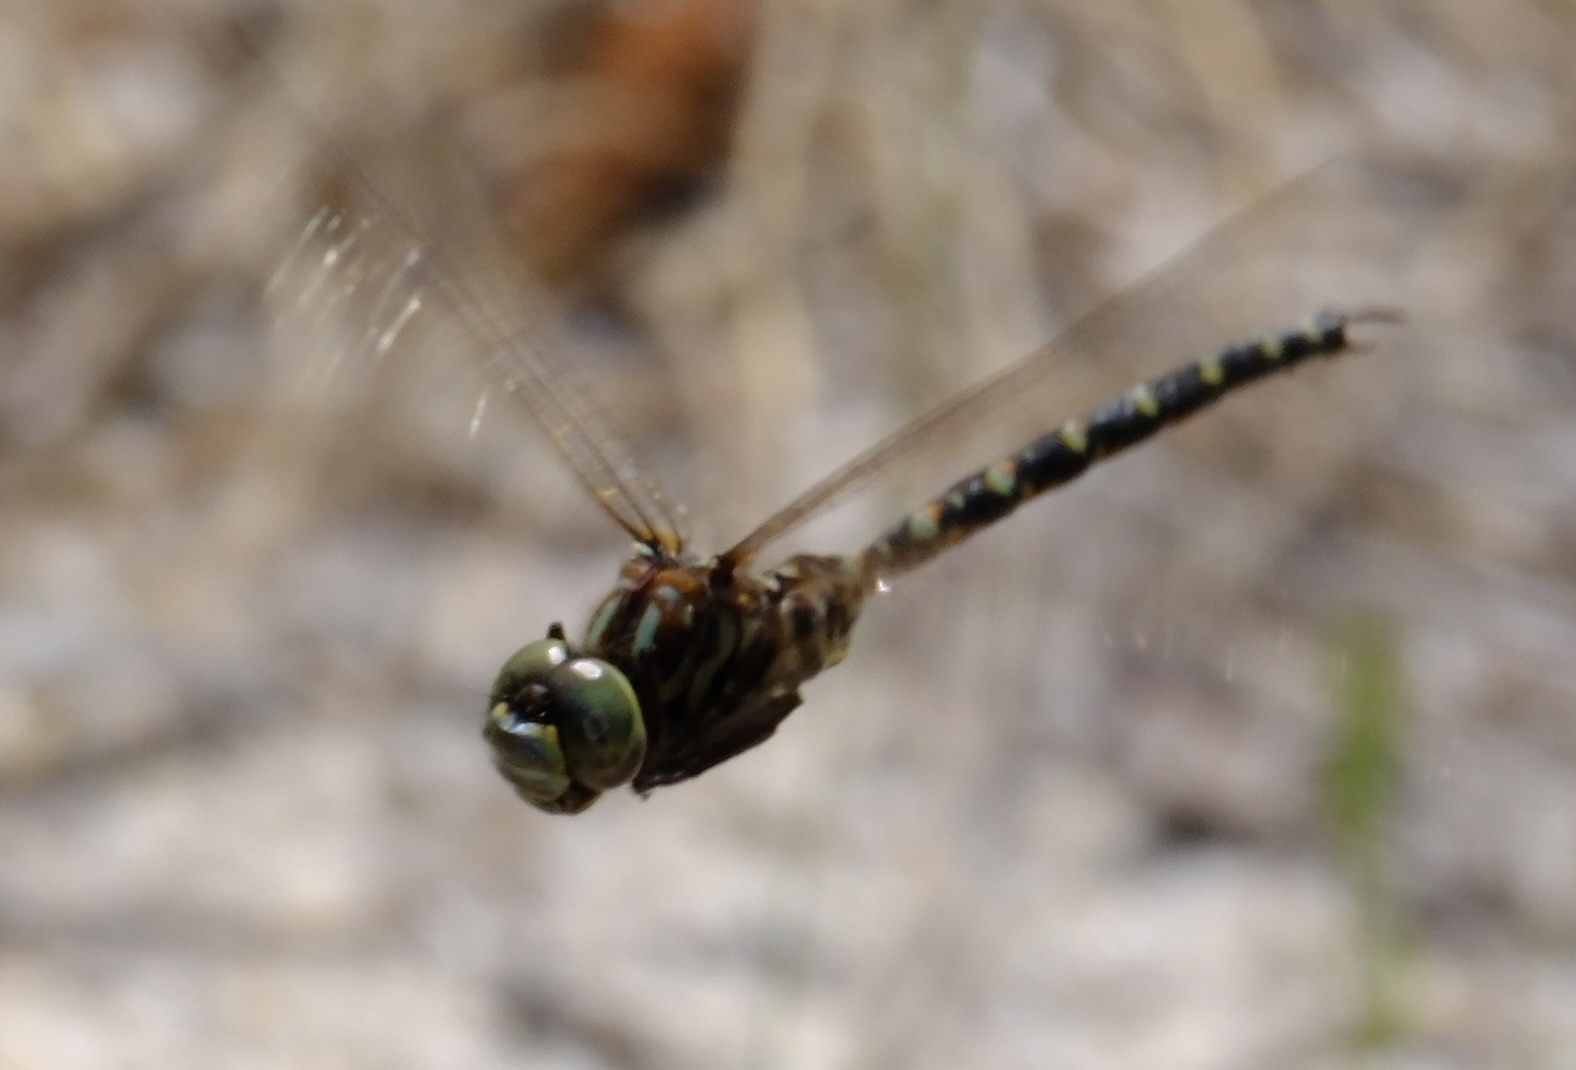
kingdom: Animalia
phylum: Arthropoda
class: Insecta
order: Odonata
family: Aeshnidae
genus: Gomphaeschna
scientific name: Gomphaeschna furcillata
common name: Harlequin darner
